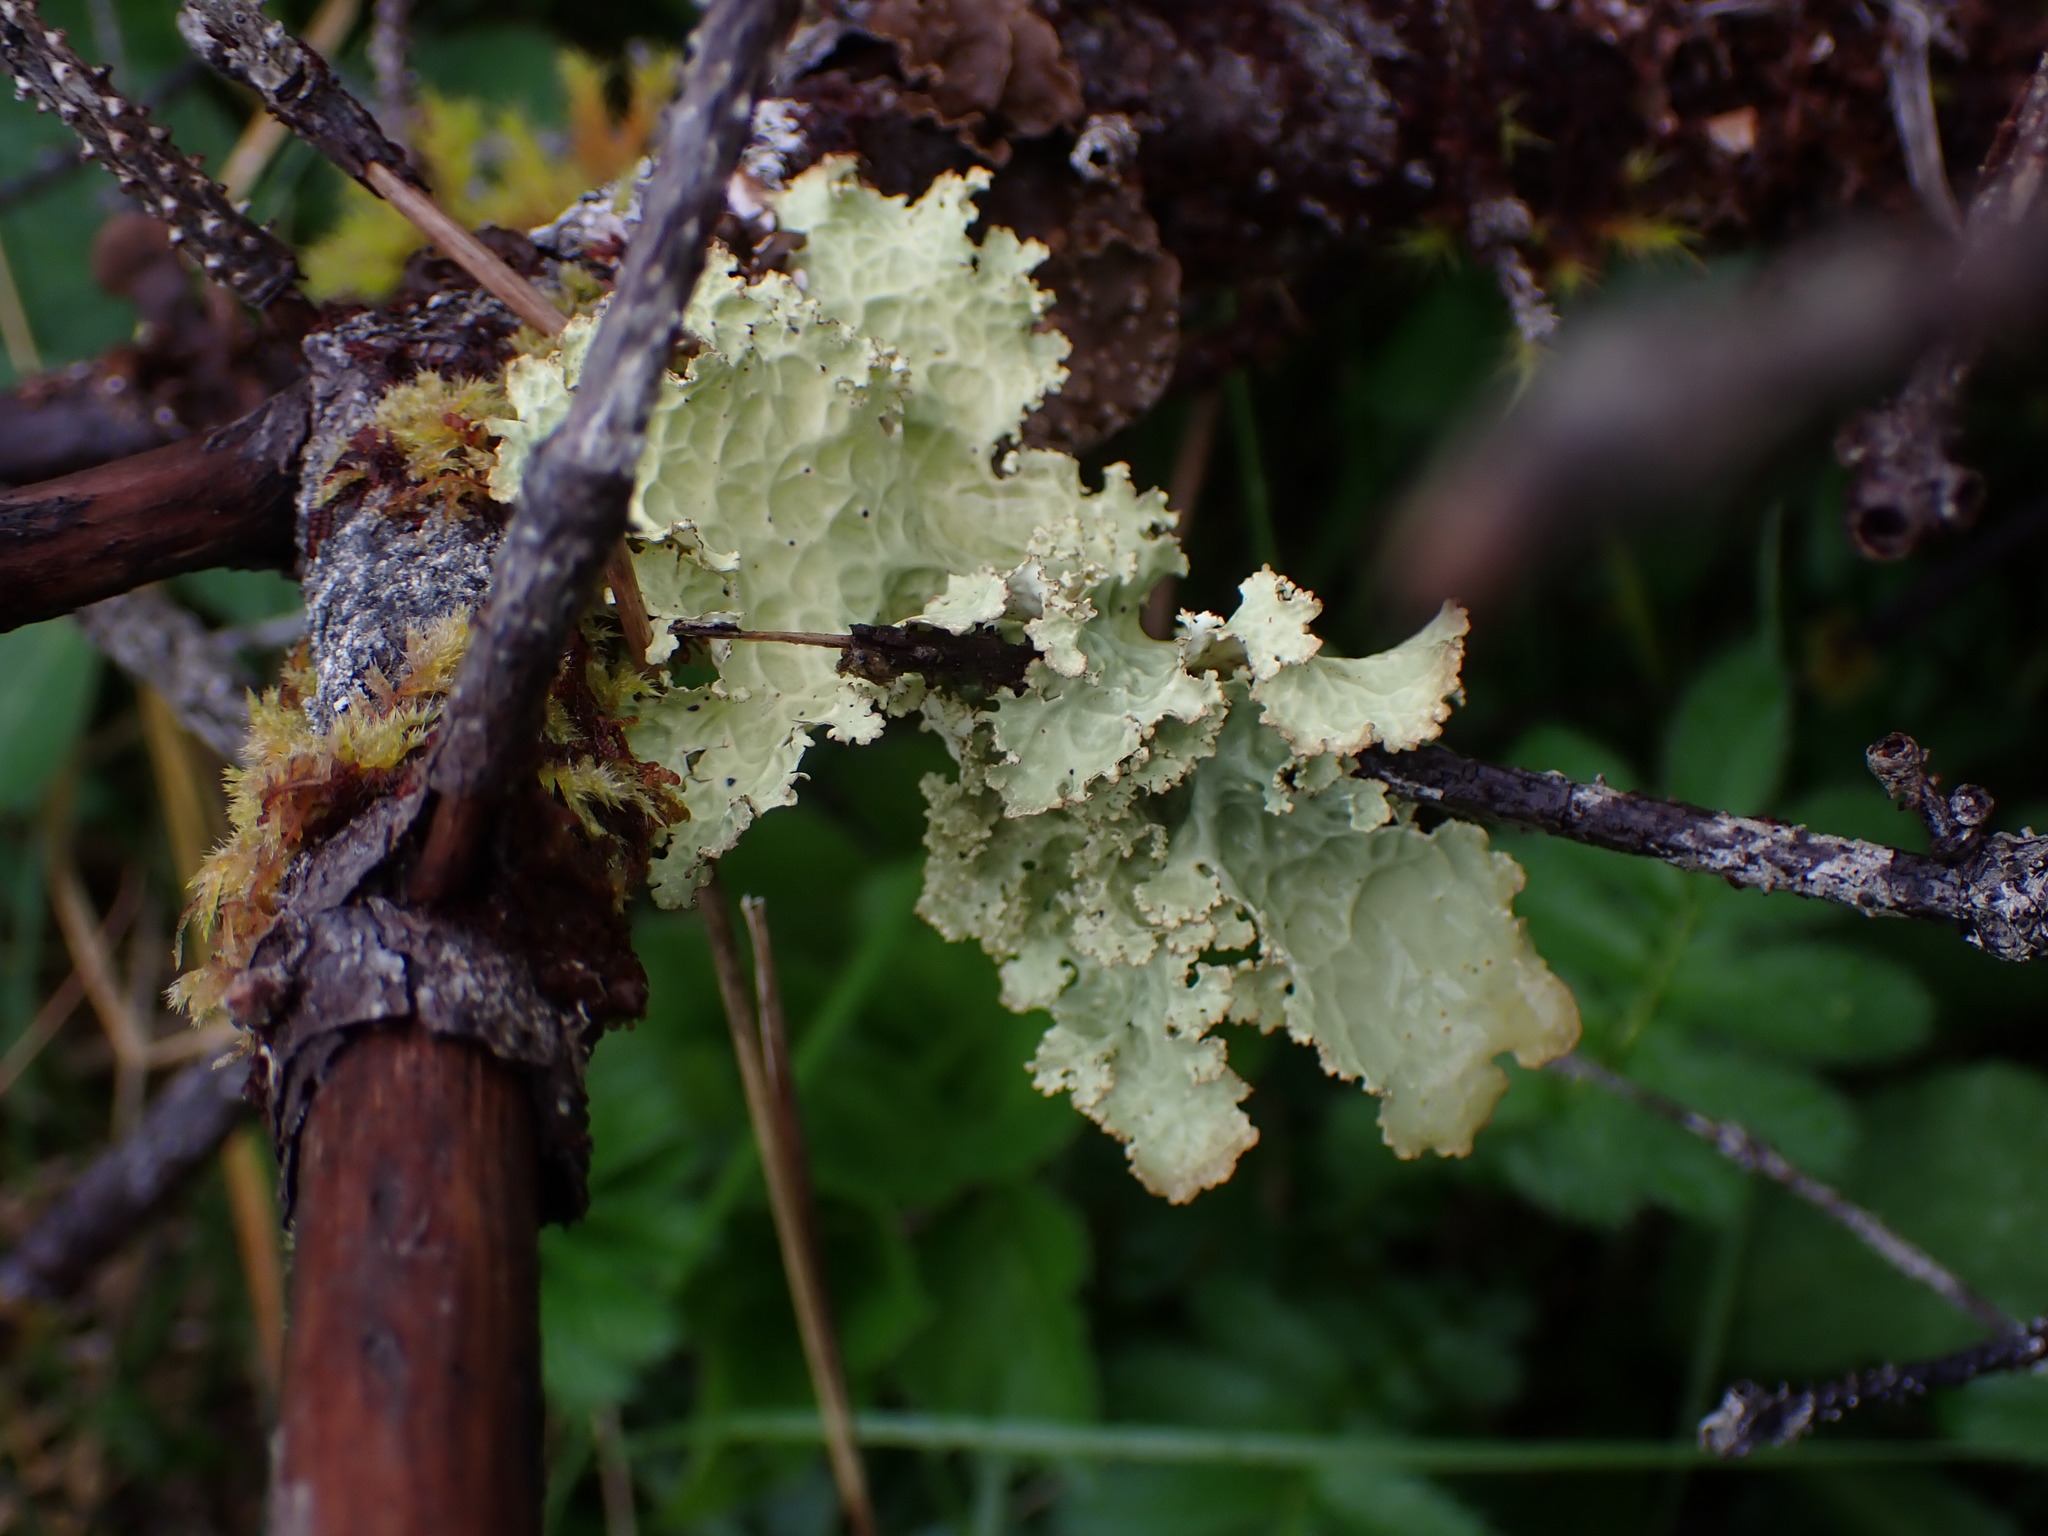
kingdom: Fungi
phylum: Ascomycota
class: Lecanoromycetes
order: Peltigerales
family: Lobariaceae
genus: Lobaria
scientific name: Lobaria oregana
